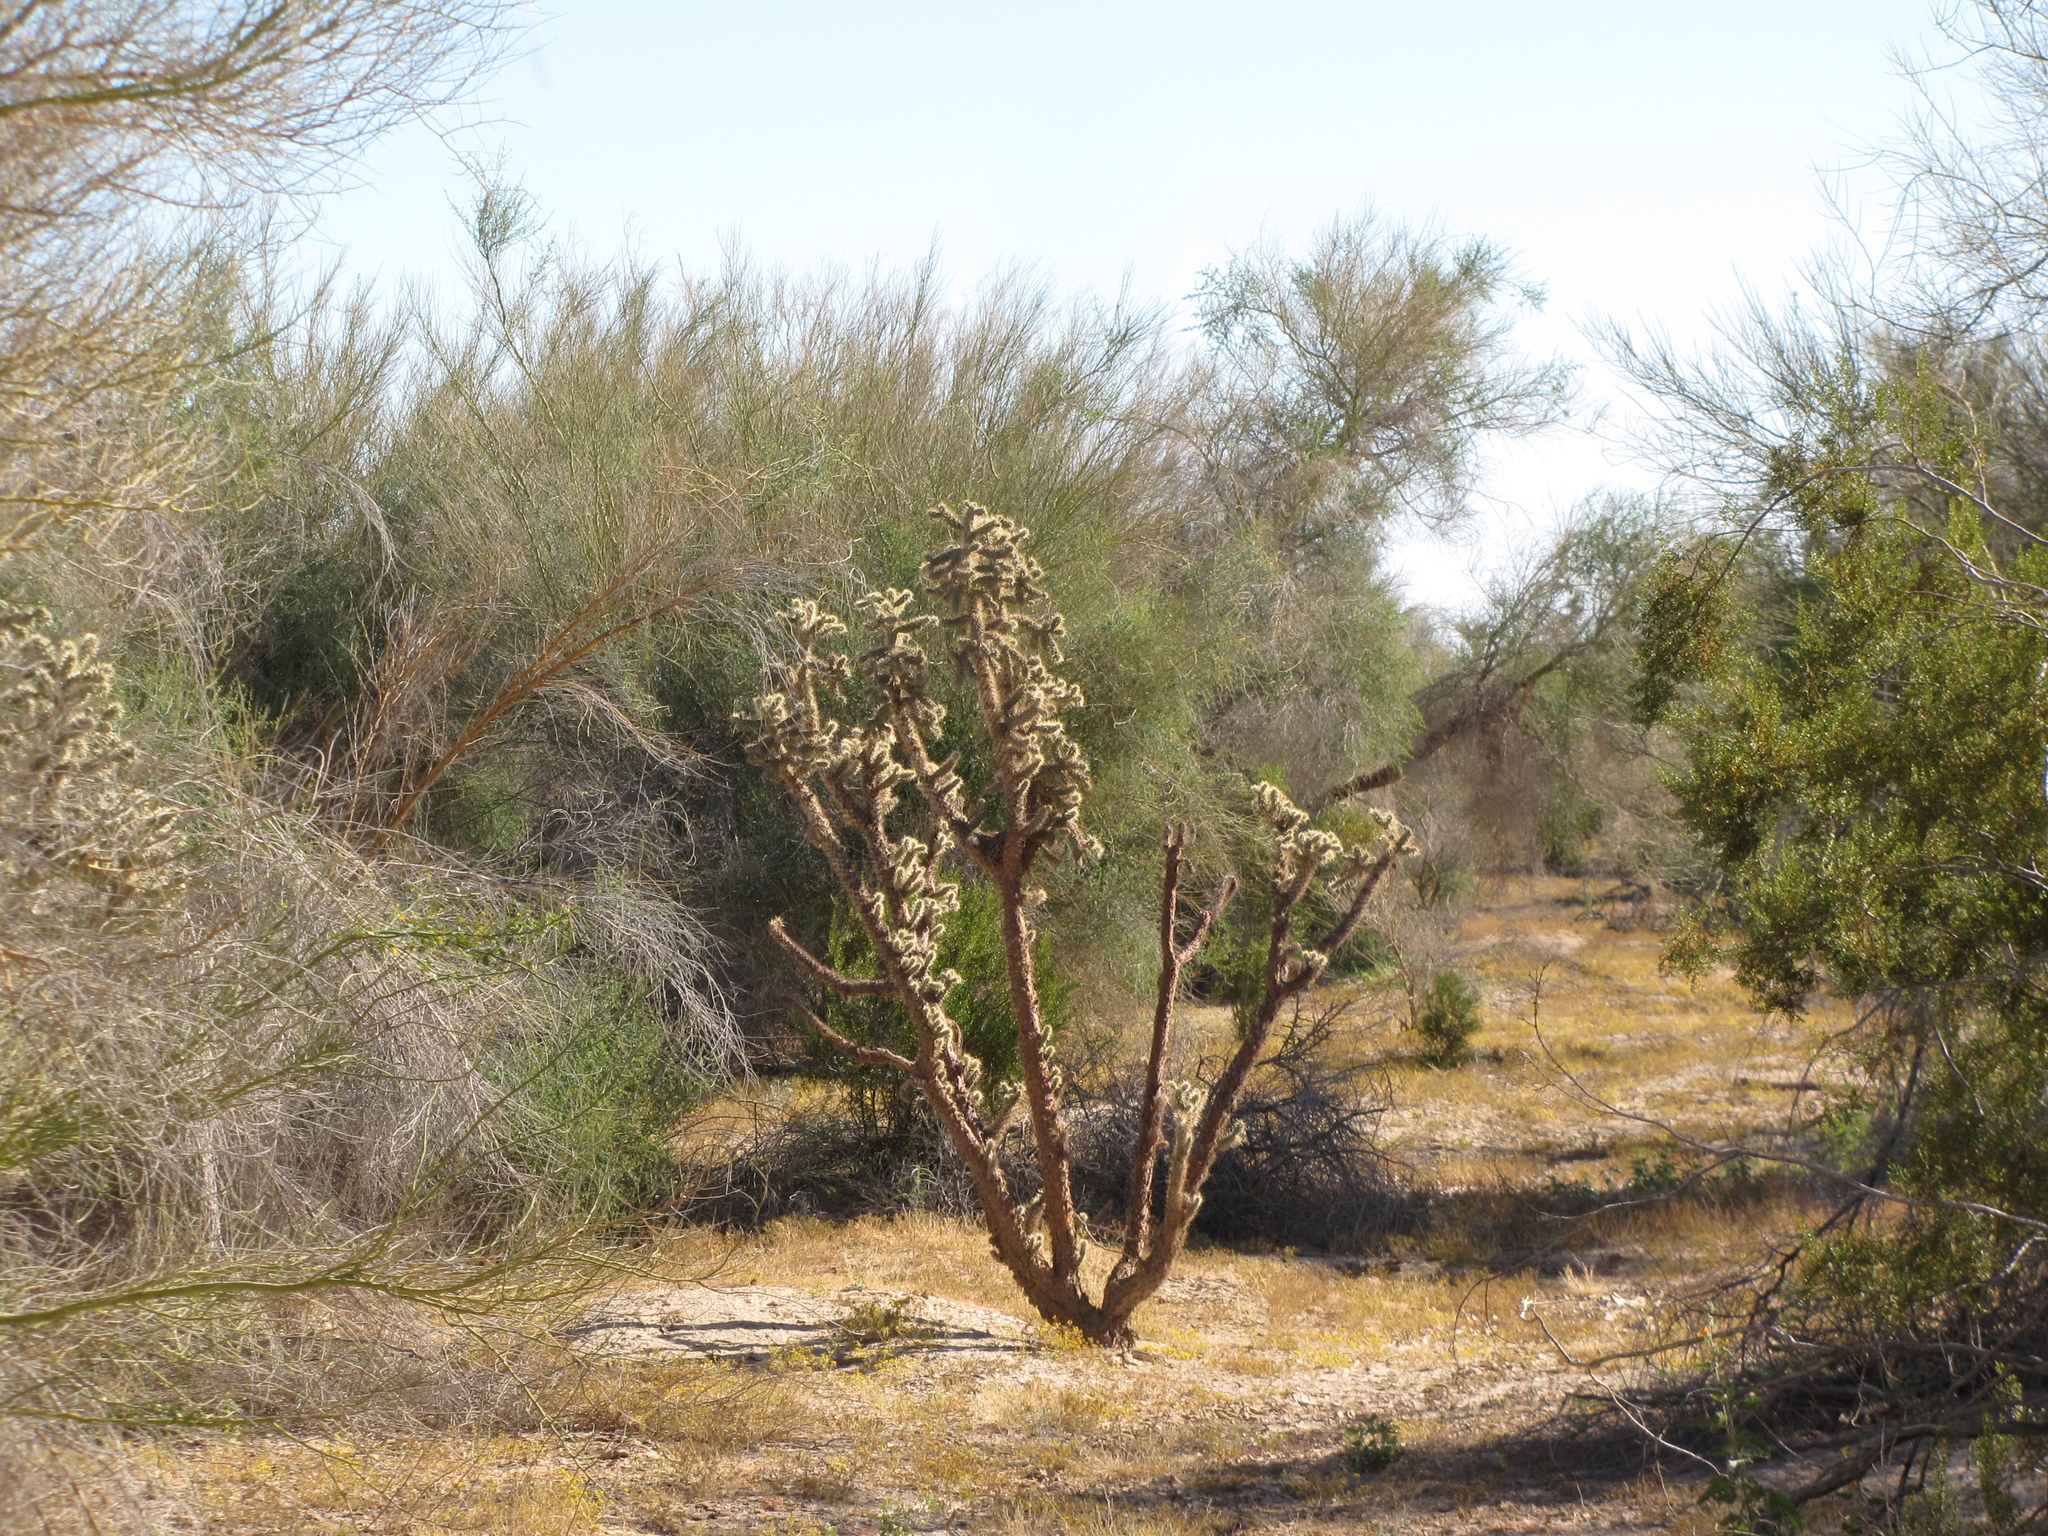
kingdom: Plantae
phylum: Tracheophyta
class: Magnoliopsida
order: Caryophyllales
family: Cactaceae
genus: Cylindropuntia
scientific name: Cylindropuntia munzii
